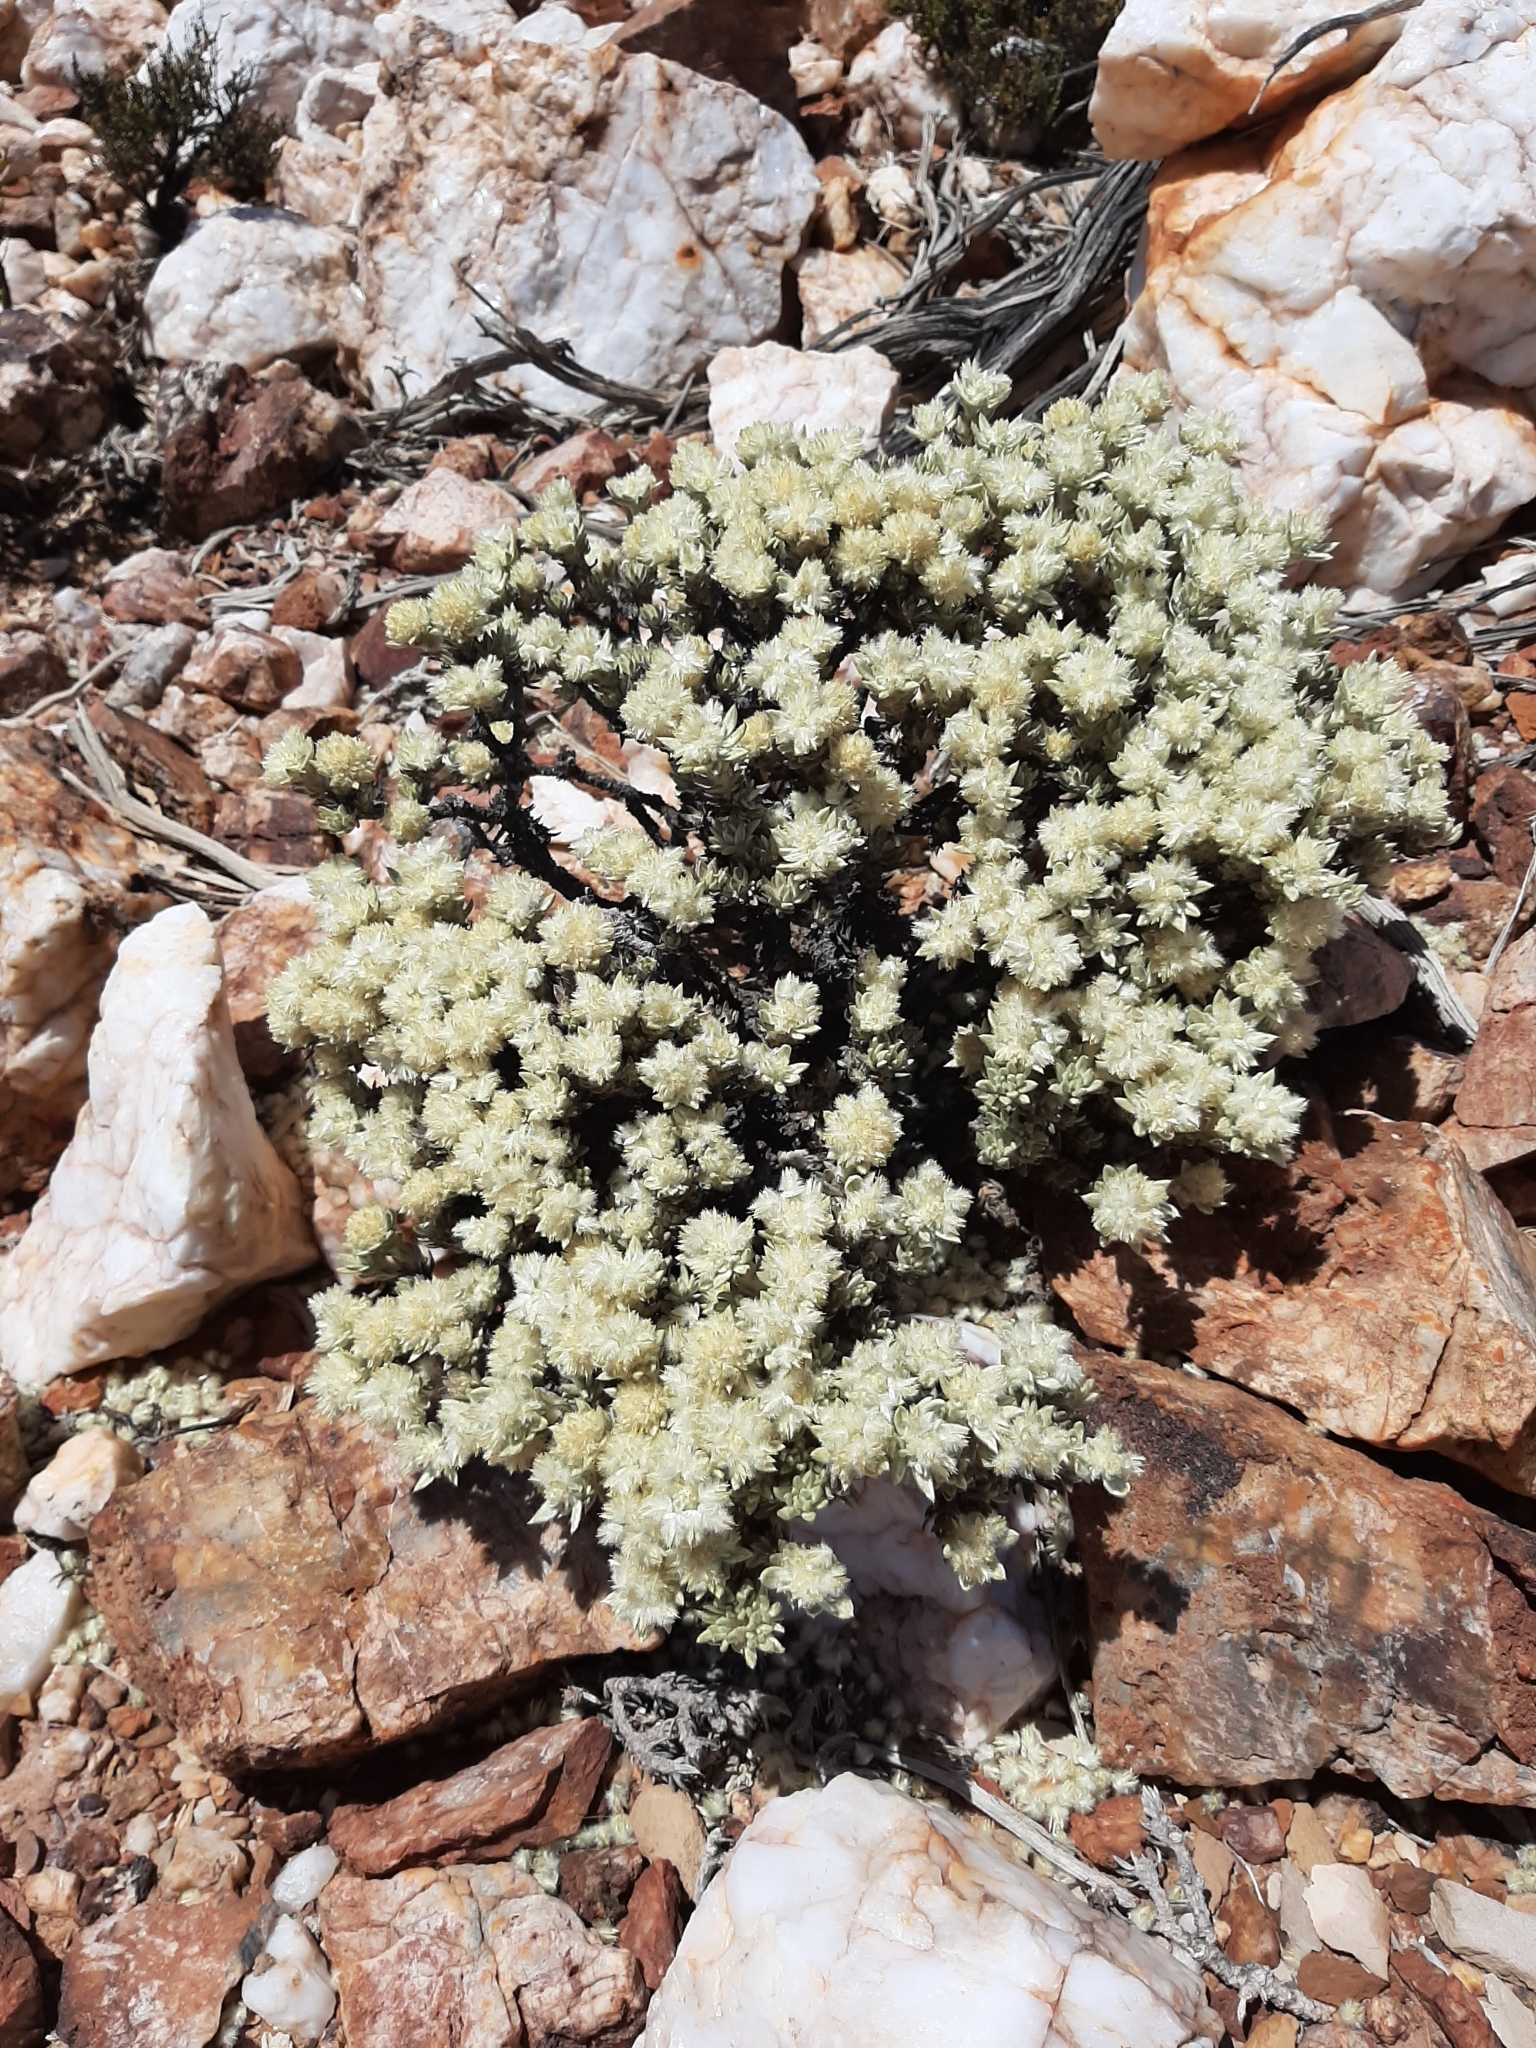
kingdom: Plantae
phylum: Tracheophyta
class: Magnoliopsida
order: Caryophyllales
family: Amaranthaceae
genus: Ptilotus
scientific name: Ptilotus helichrysoides
